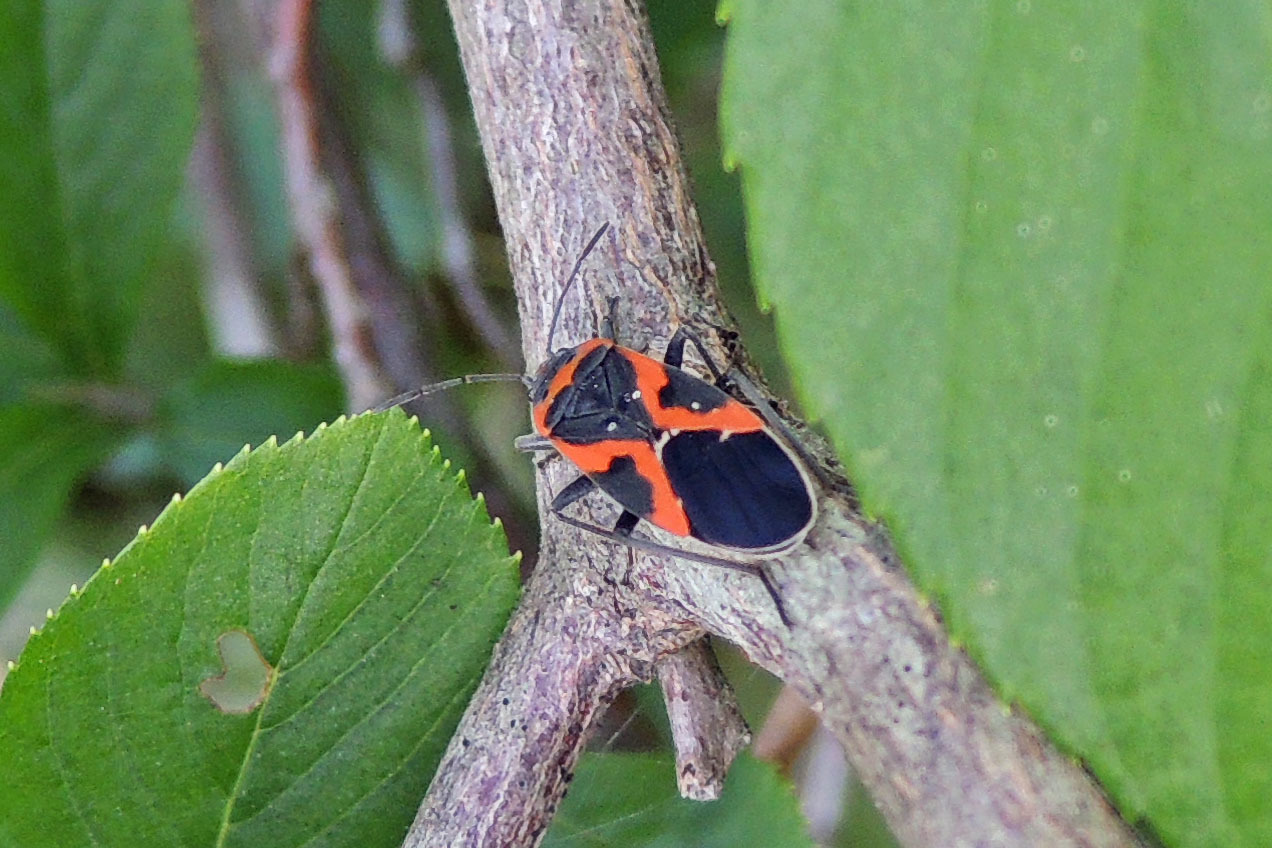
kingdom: Animalia
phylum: Arthropoda
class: Insecta
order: Hemiptera
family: Lygaeidae
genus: Lygaeus
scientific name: Lygaeus kalmii
